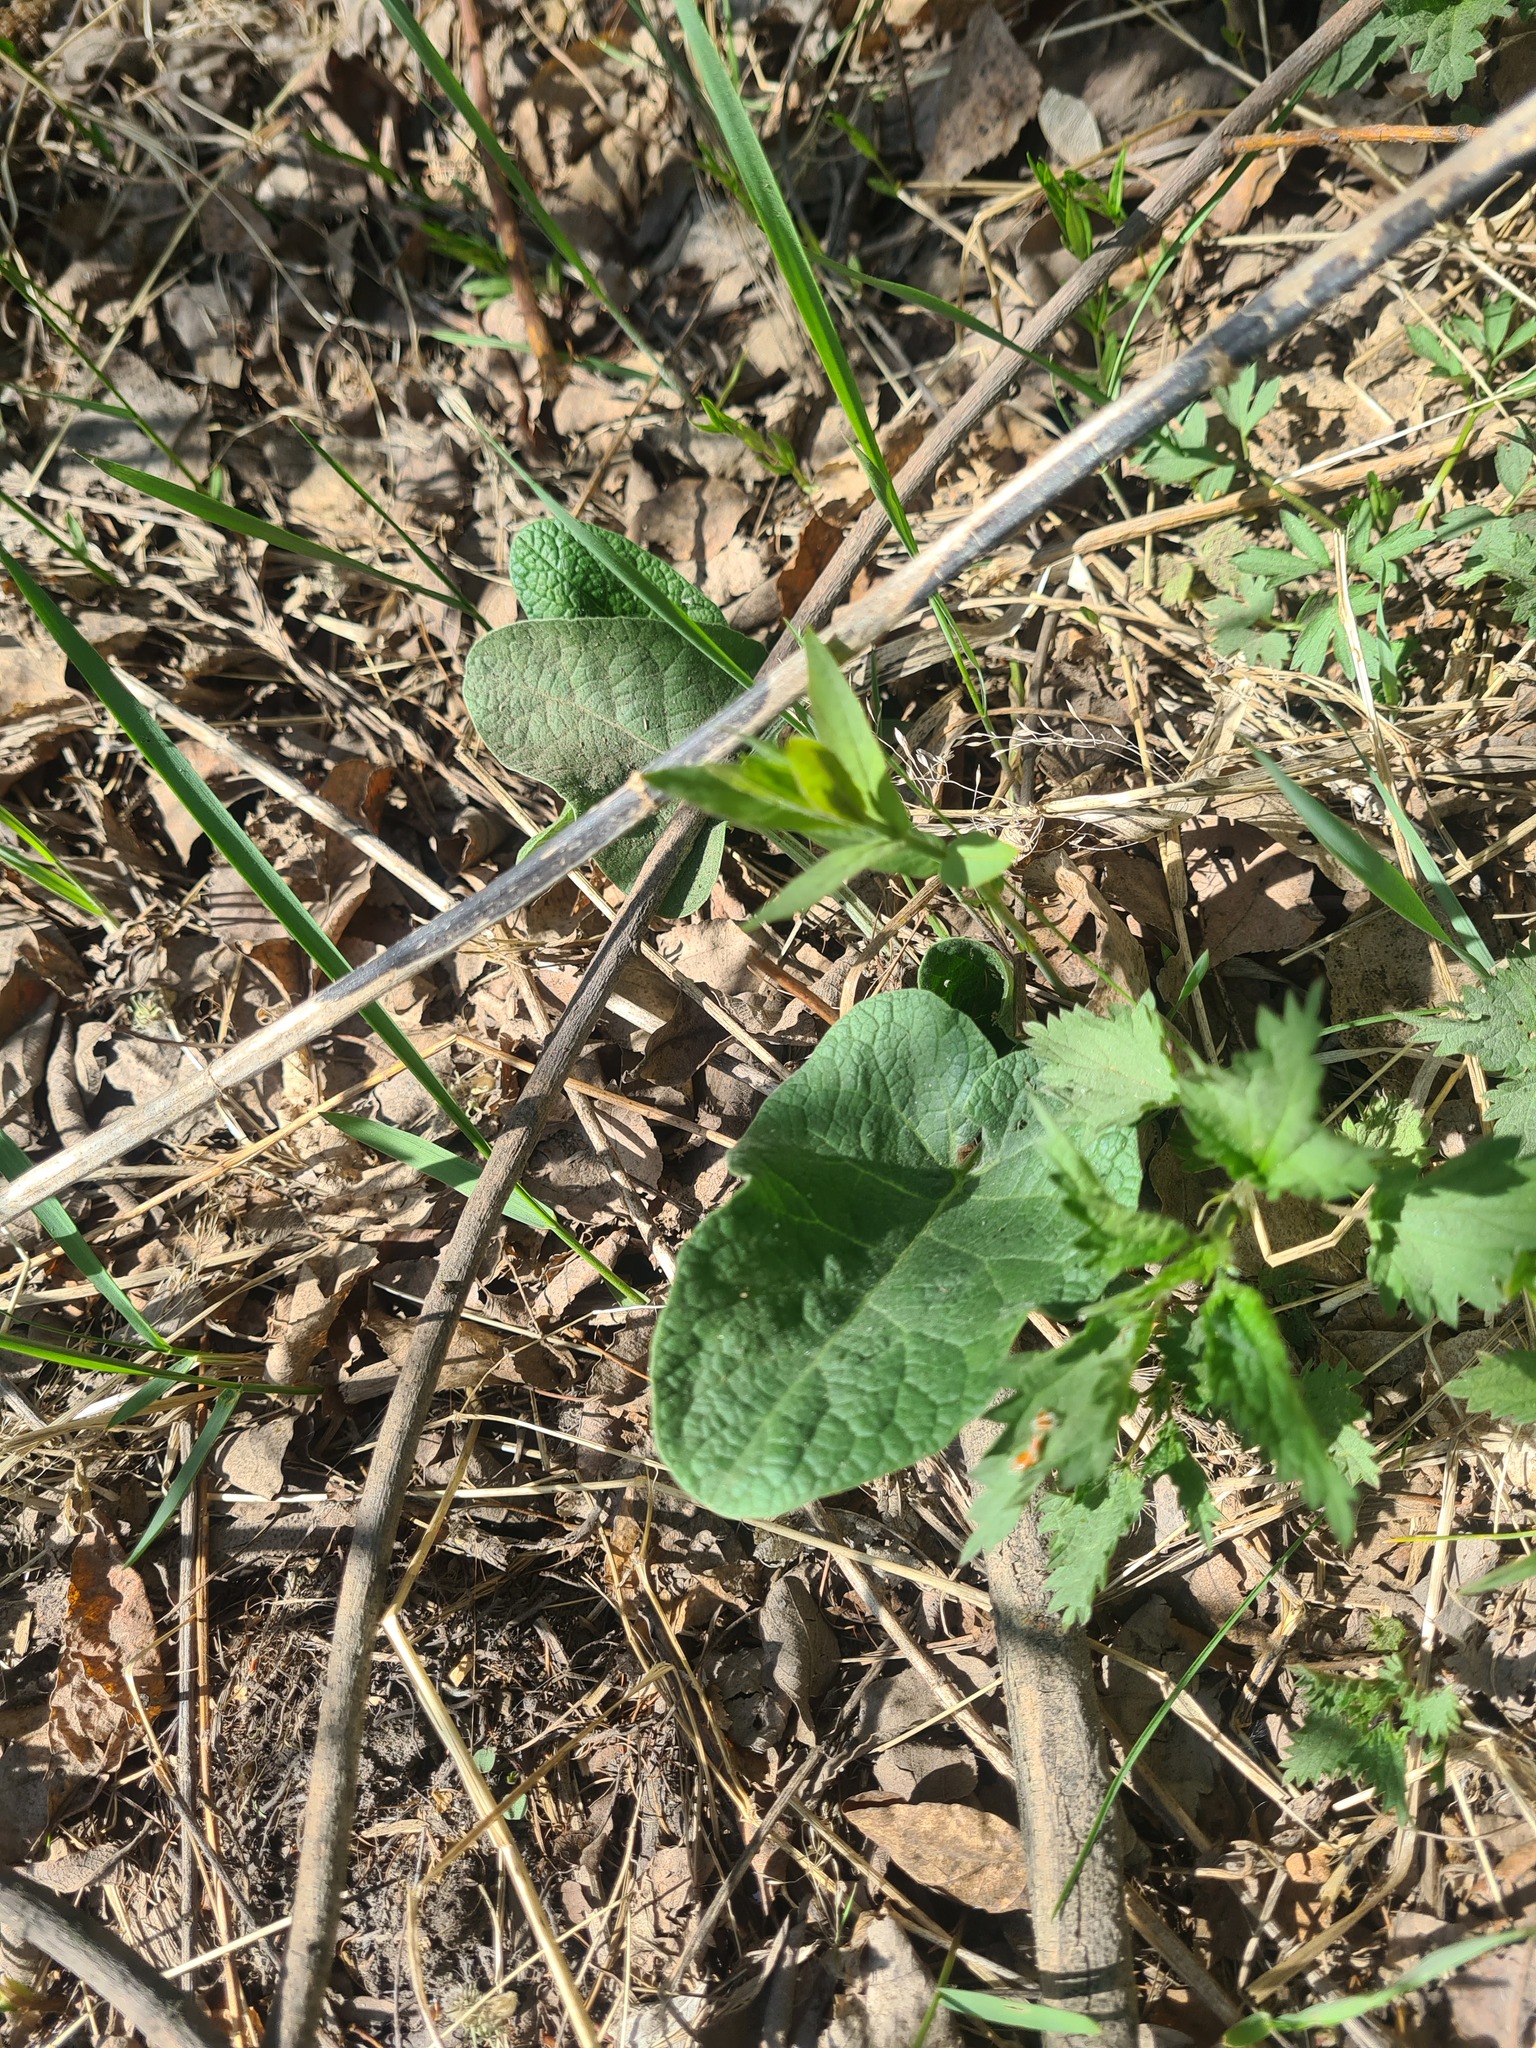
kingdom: Plantae
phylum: Tracheophyta
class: Magnoliopsida
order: Asterales
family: Asteraceae
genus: Arctium
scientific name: Arctium tomentosum
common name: Woolly burdock
